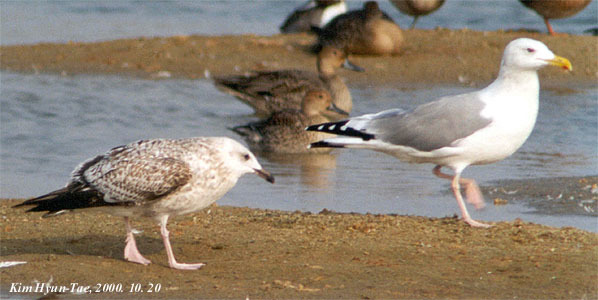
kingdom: Animalia
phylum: Chordata
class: Aves
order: Charadriiformes
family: Laridae
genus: Larus
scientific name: Larus vegae
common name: Vega gull
